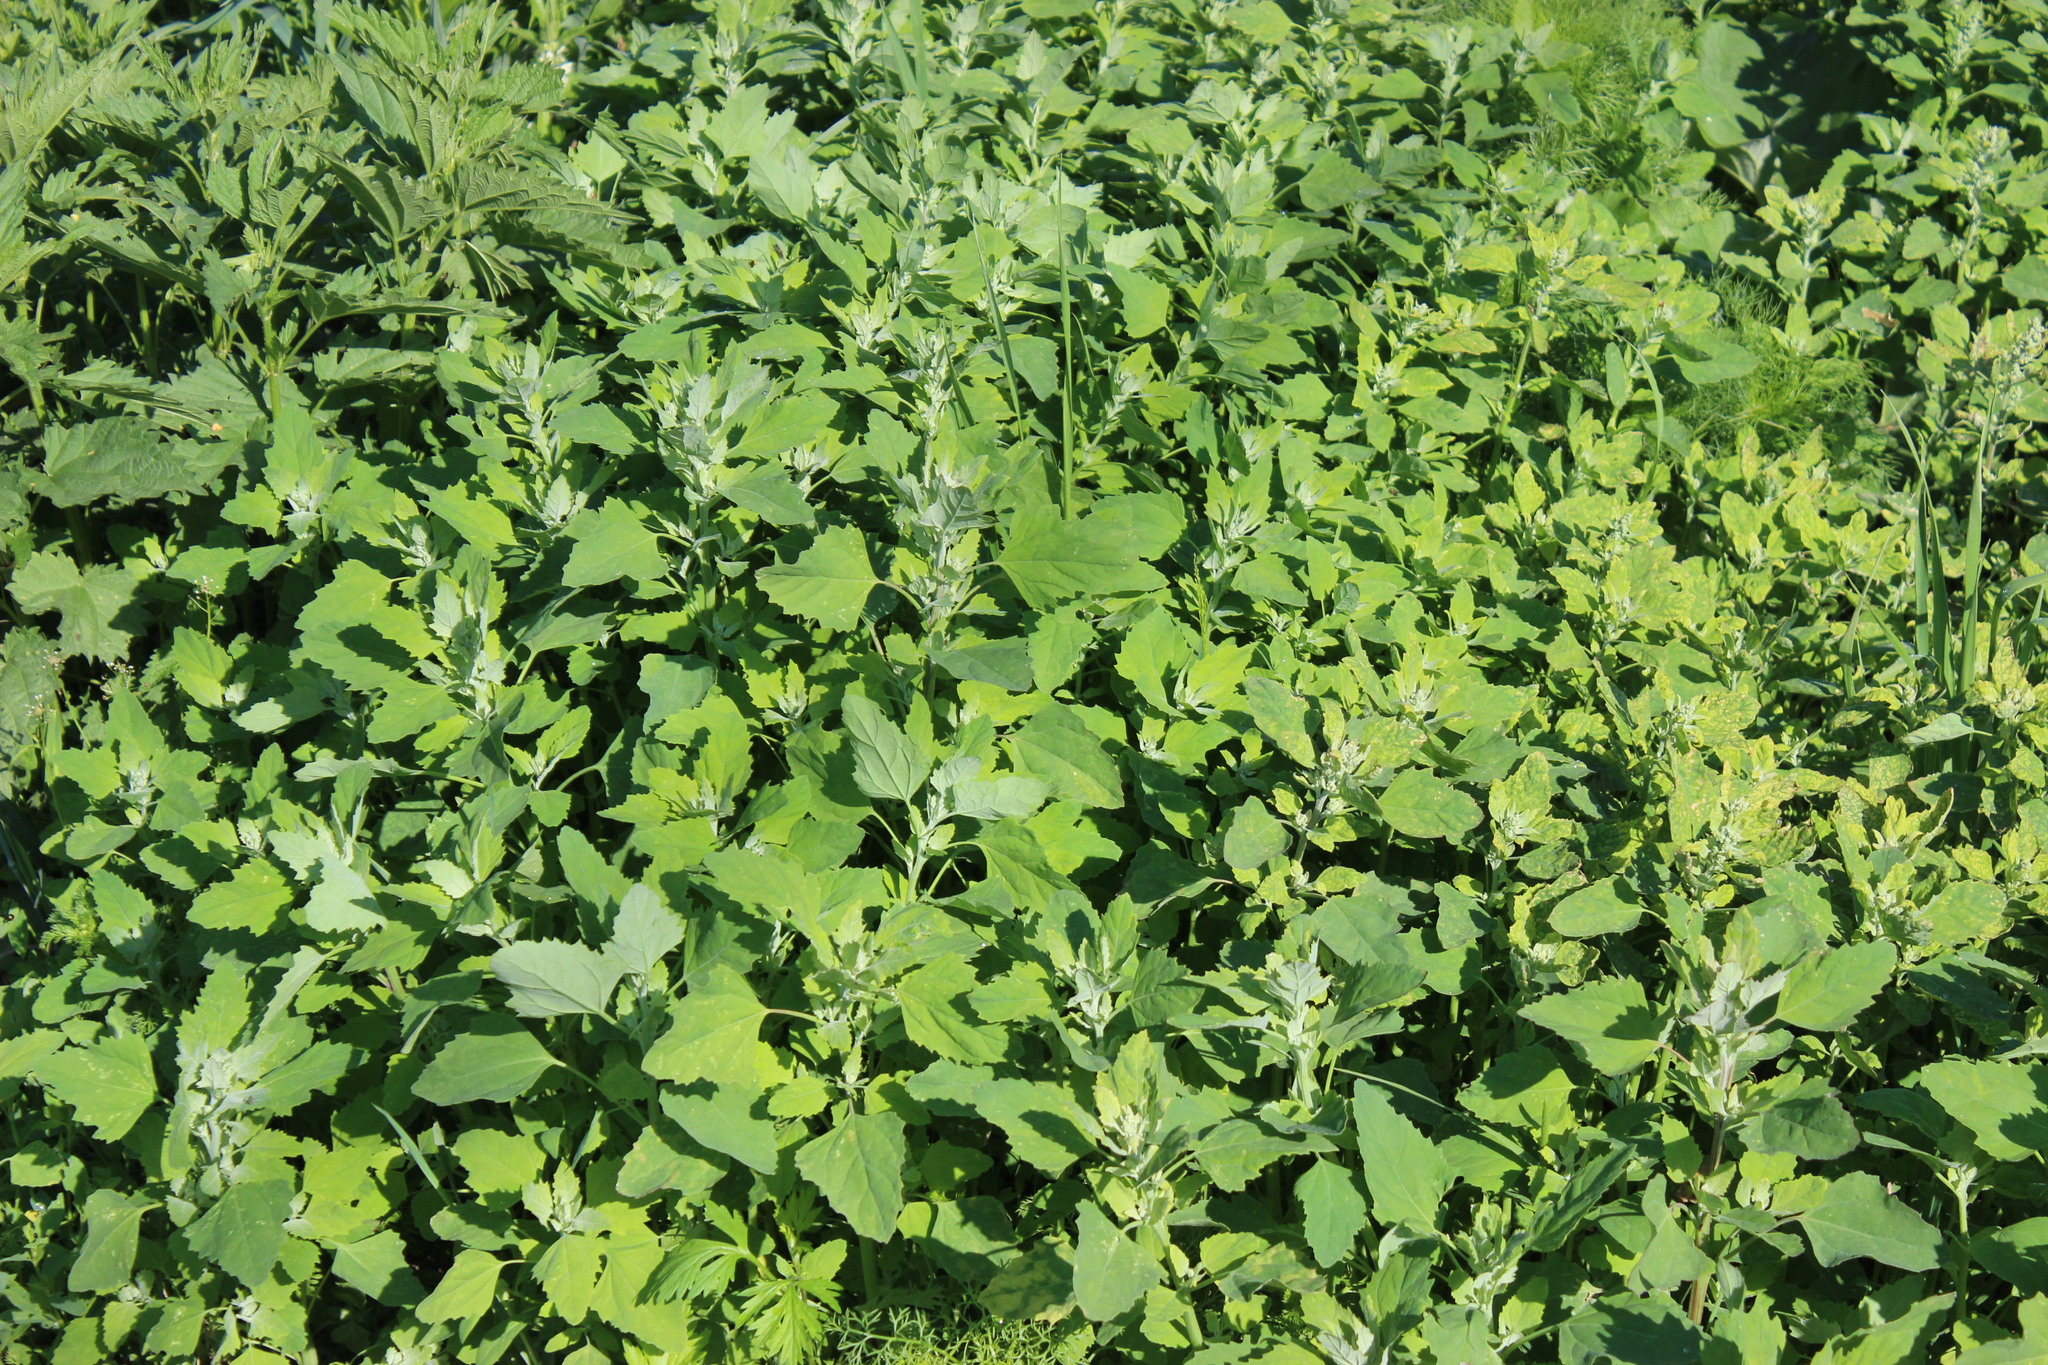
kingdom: Plantae
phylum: Tracheophyta
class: Magnoliopsida
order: Caryophyllales
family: Amaranthaceae
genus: Chenopodium
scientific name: Chenopodium album
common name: Fat-hen
